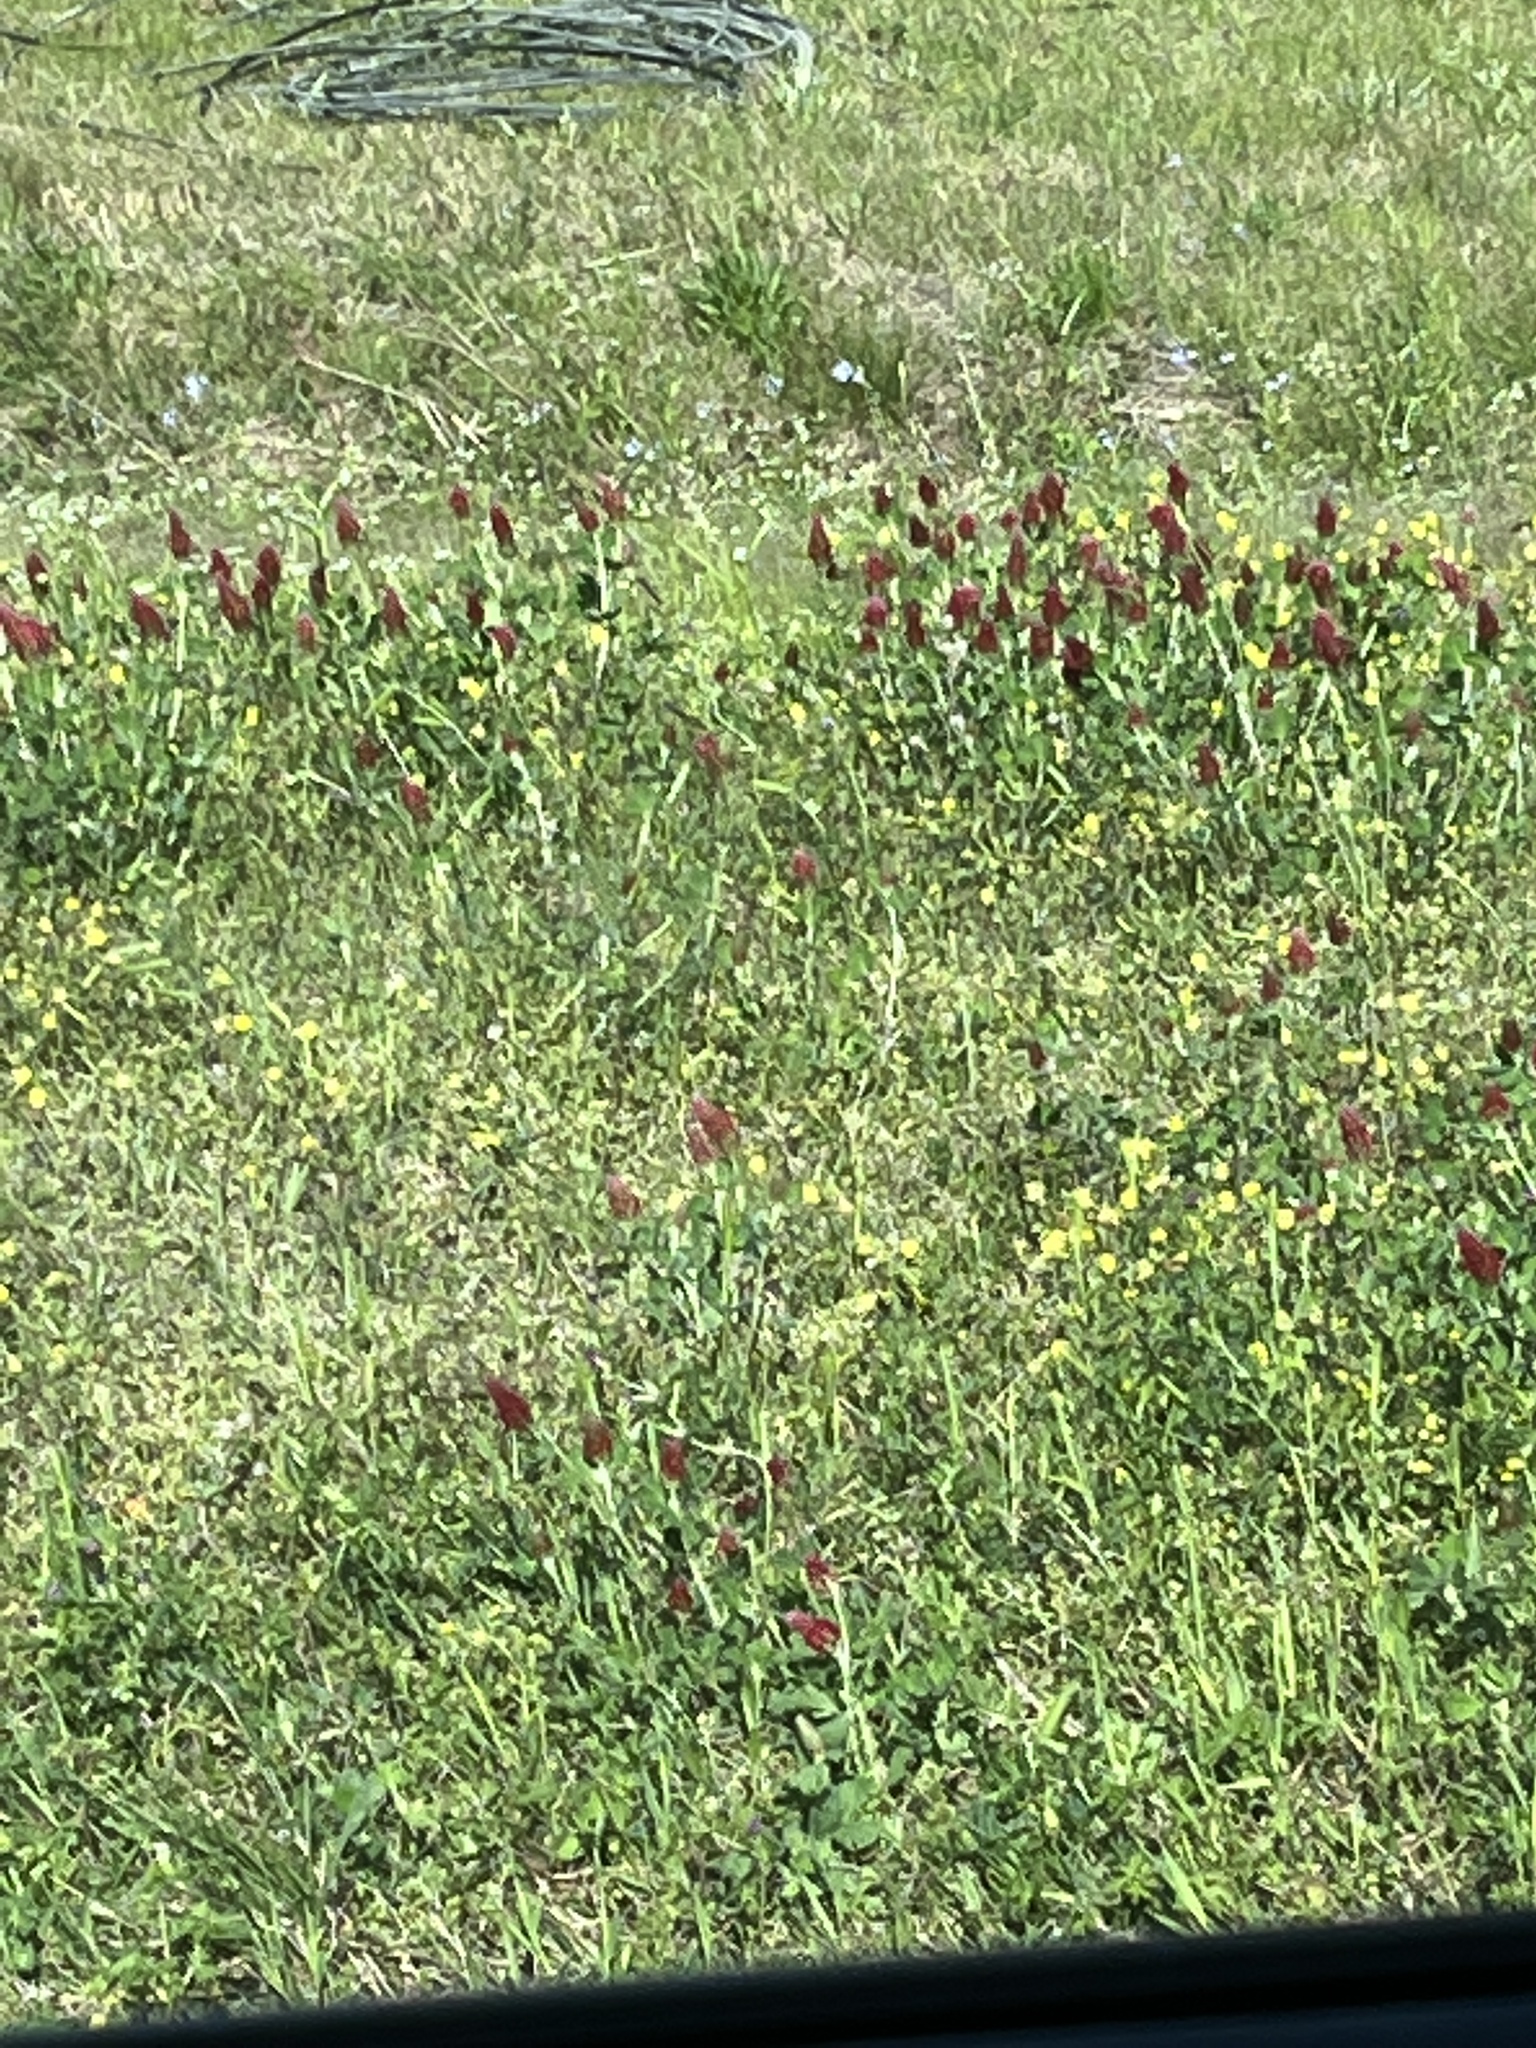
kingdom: Plantae
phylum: Tracheophyta
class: Magnoliopsida
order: Fabales
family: Fabaceae
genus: Trifolium
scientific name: Trifolium incarnatum
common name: Crimson clover
